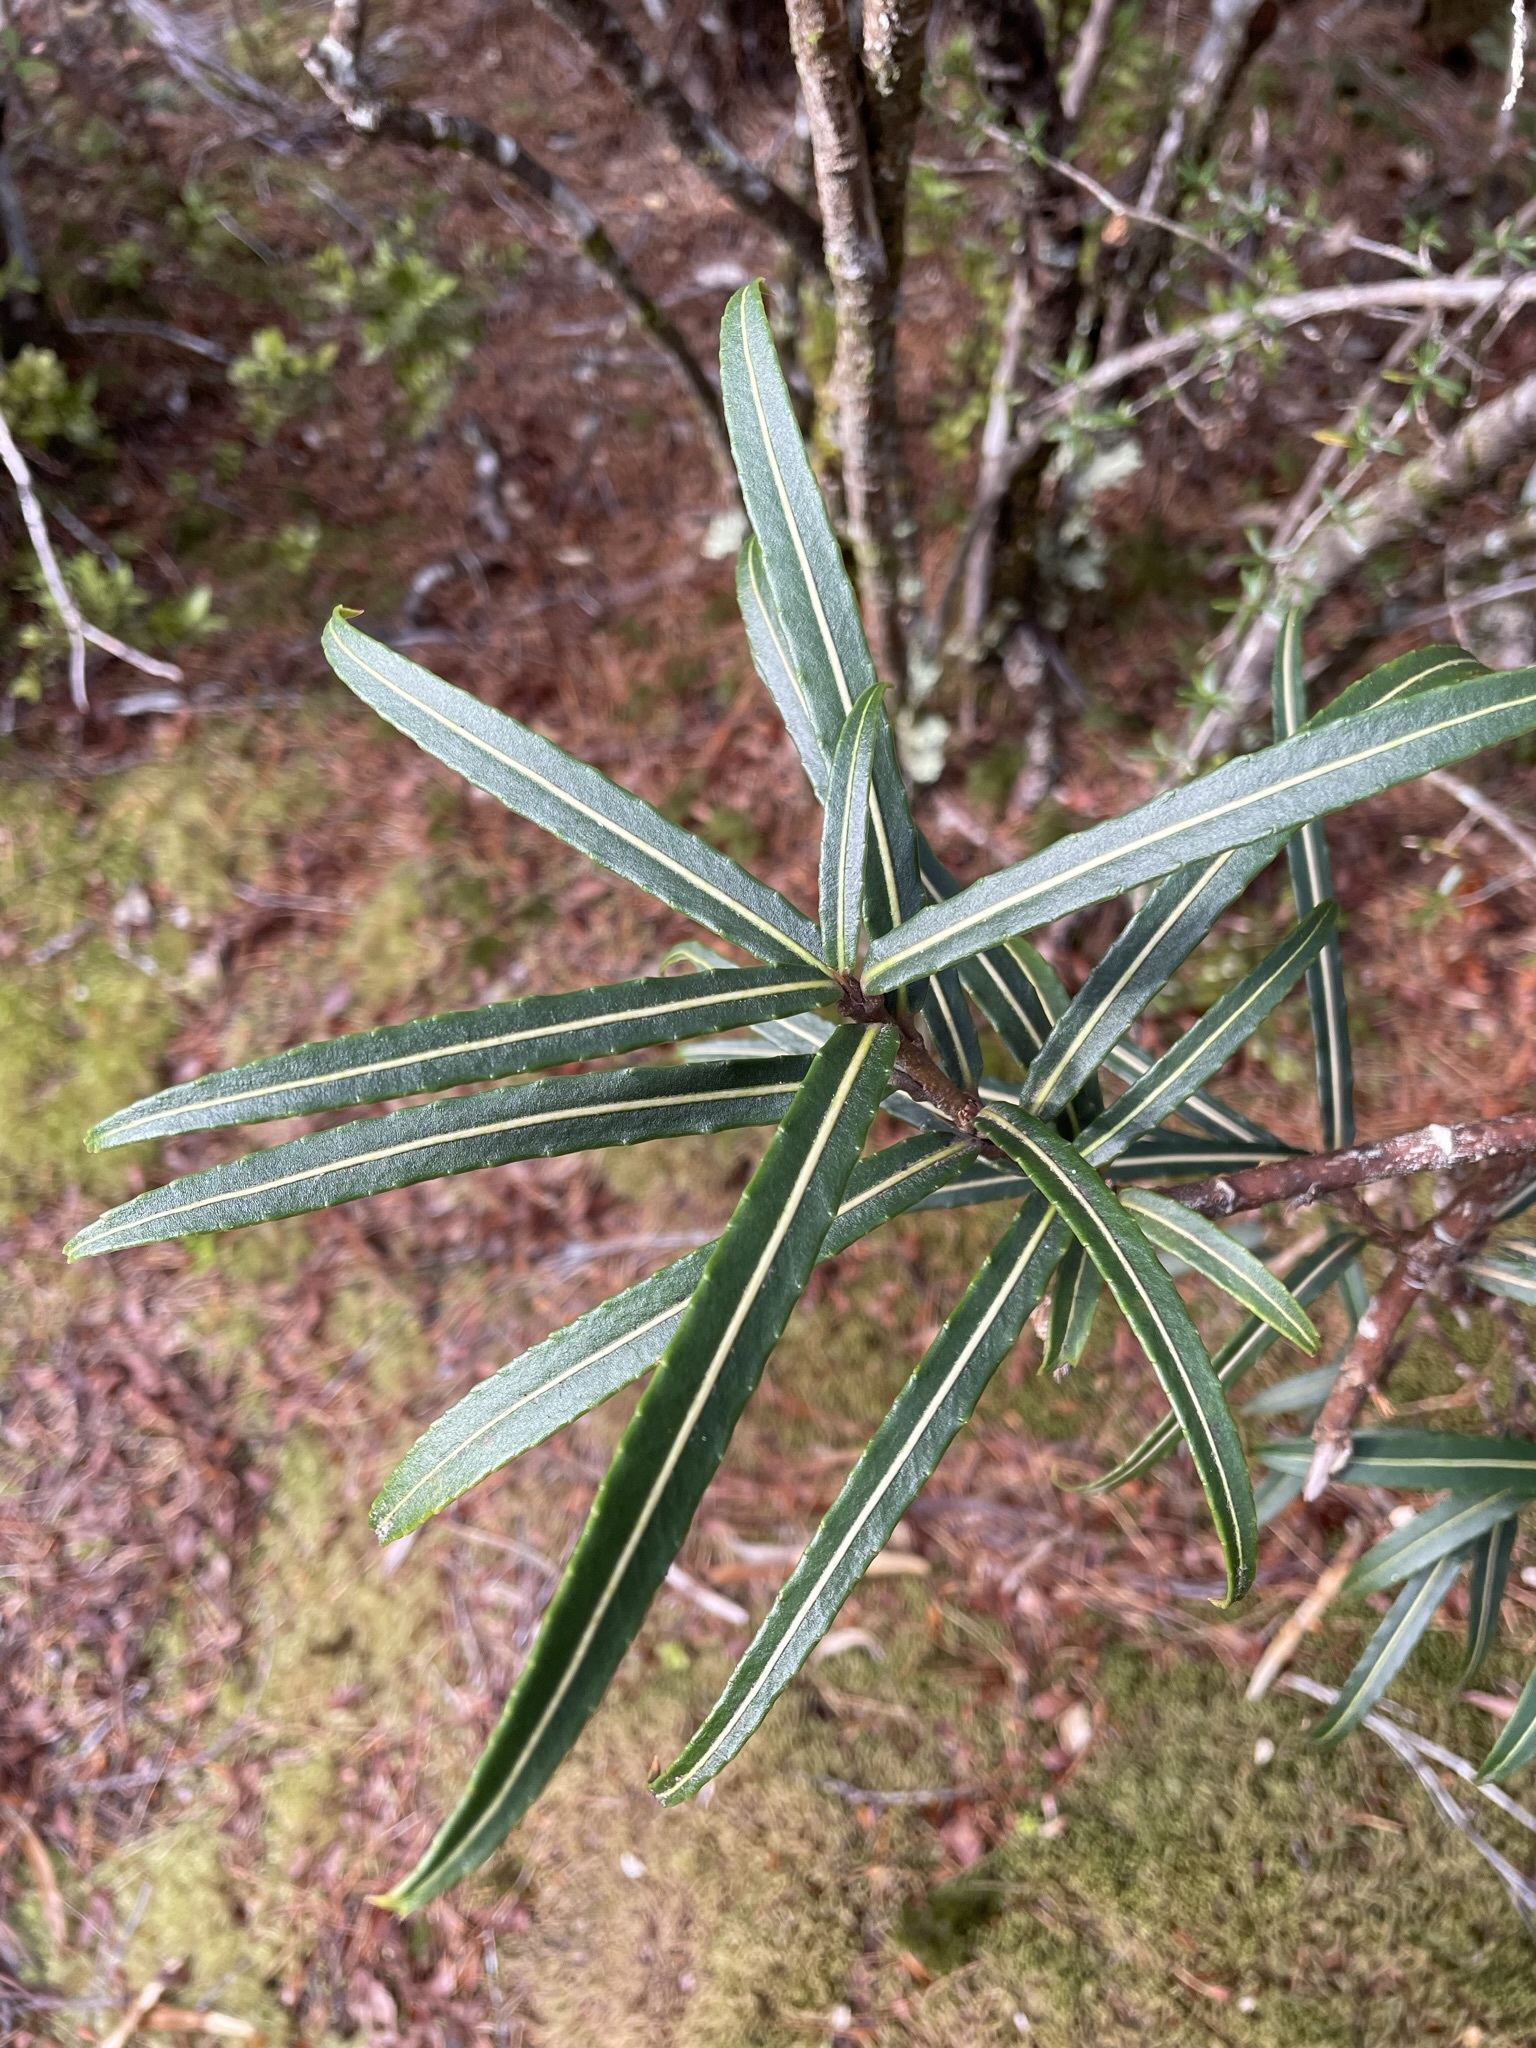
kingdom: Plantae
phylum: Tracheophyta
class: Magnoliopsida
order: Apiales
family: Araliaceae
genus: Pseudopanax
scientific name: Pseudopanax linearis
